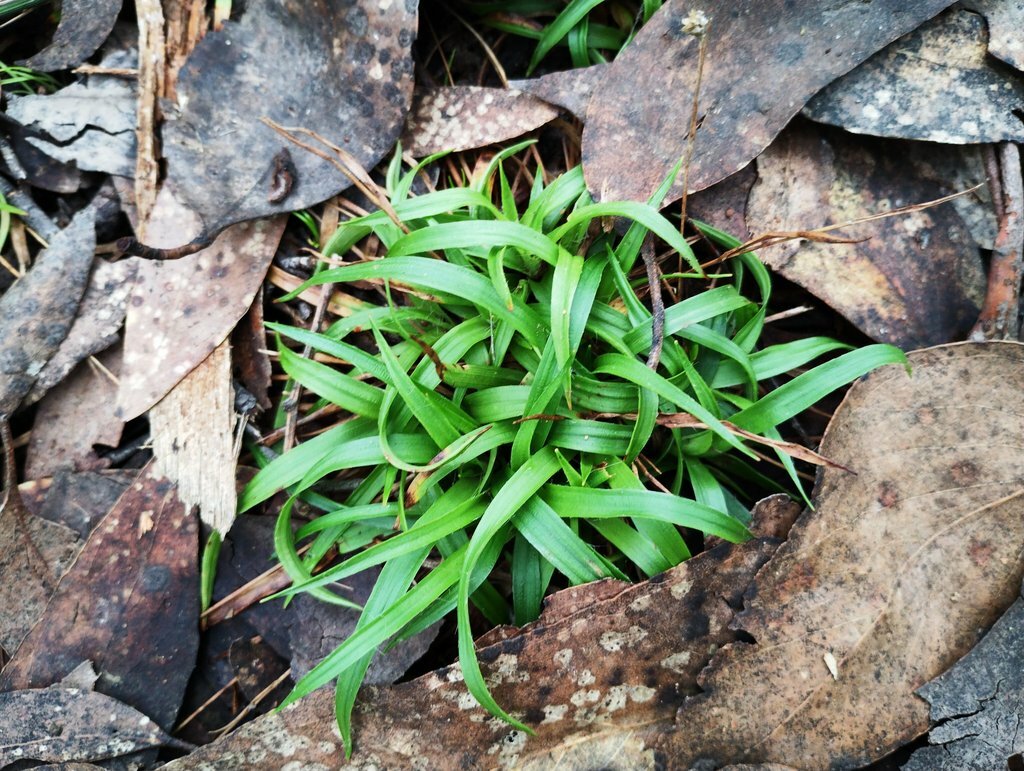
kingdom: Plantae
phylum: Tracheophyta
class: Liliopsida
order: Poales
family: Juncaceae
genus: Luzula
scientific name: Luzula meridionalis
